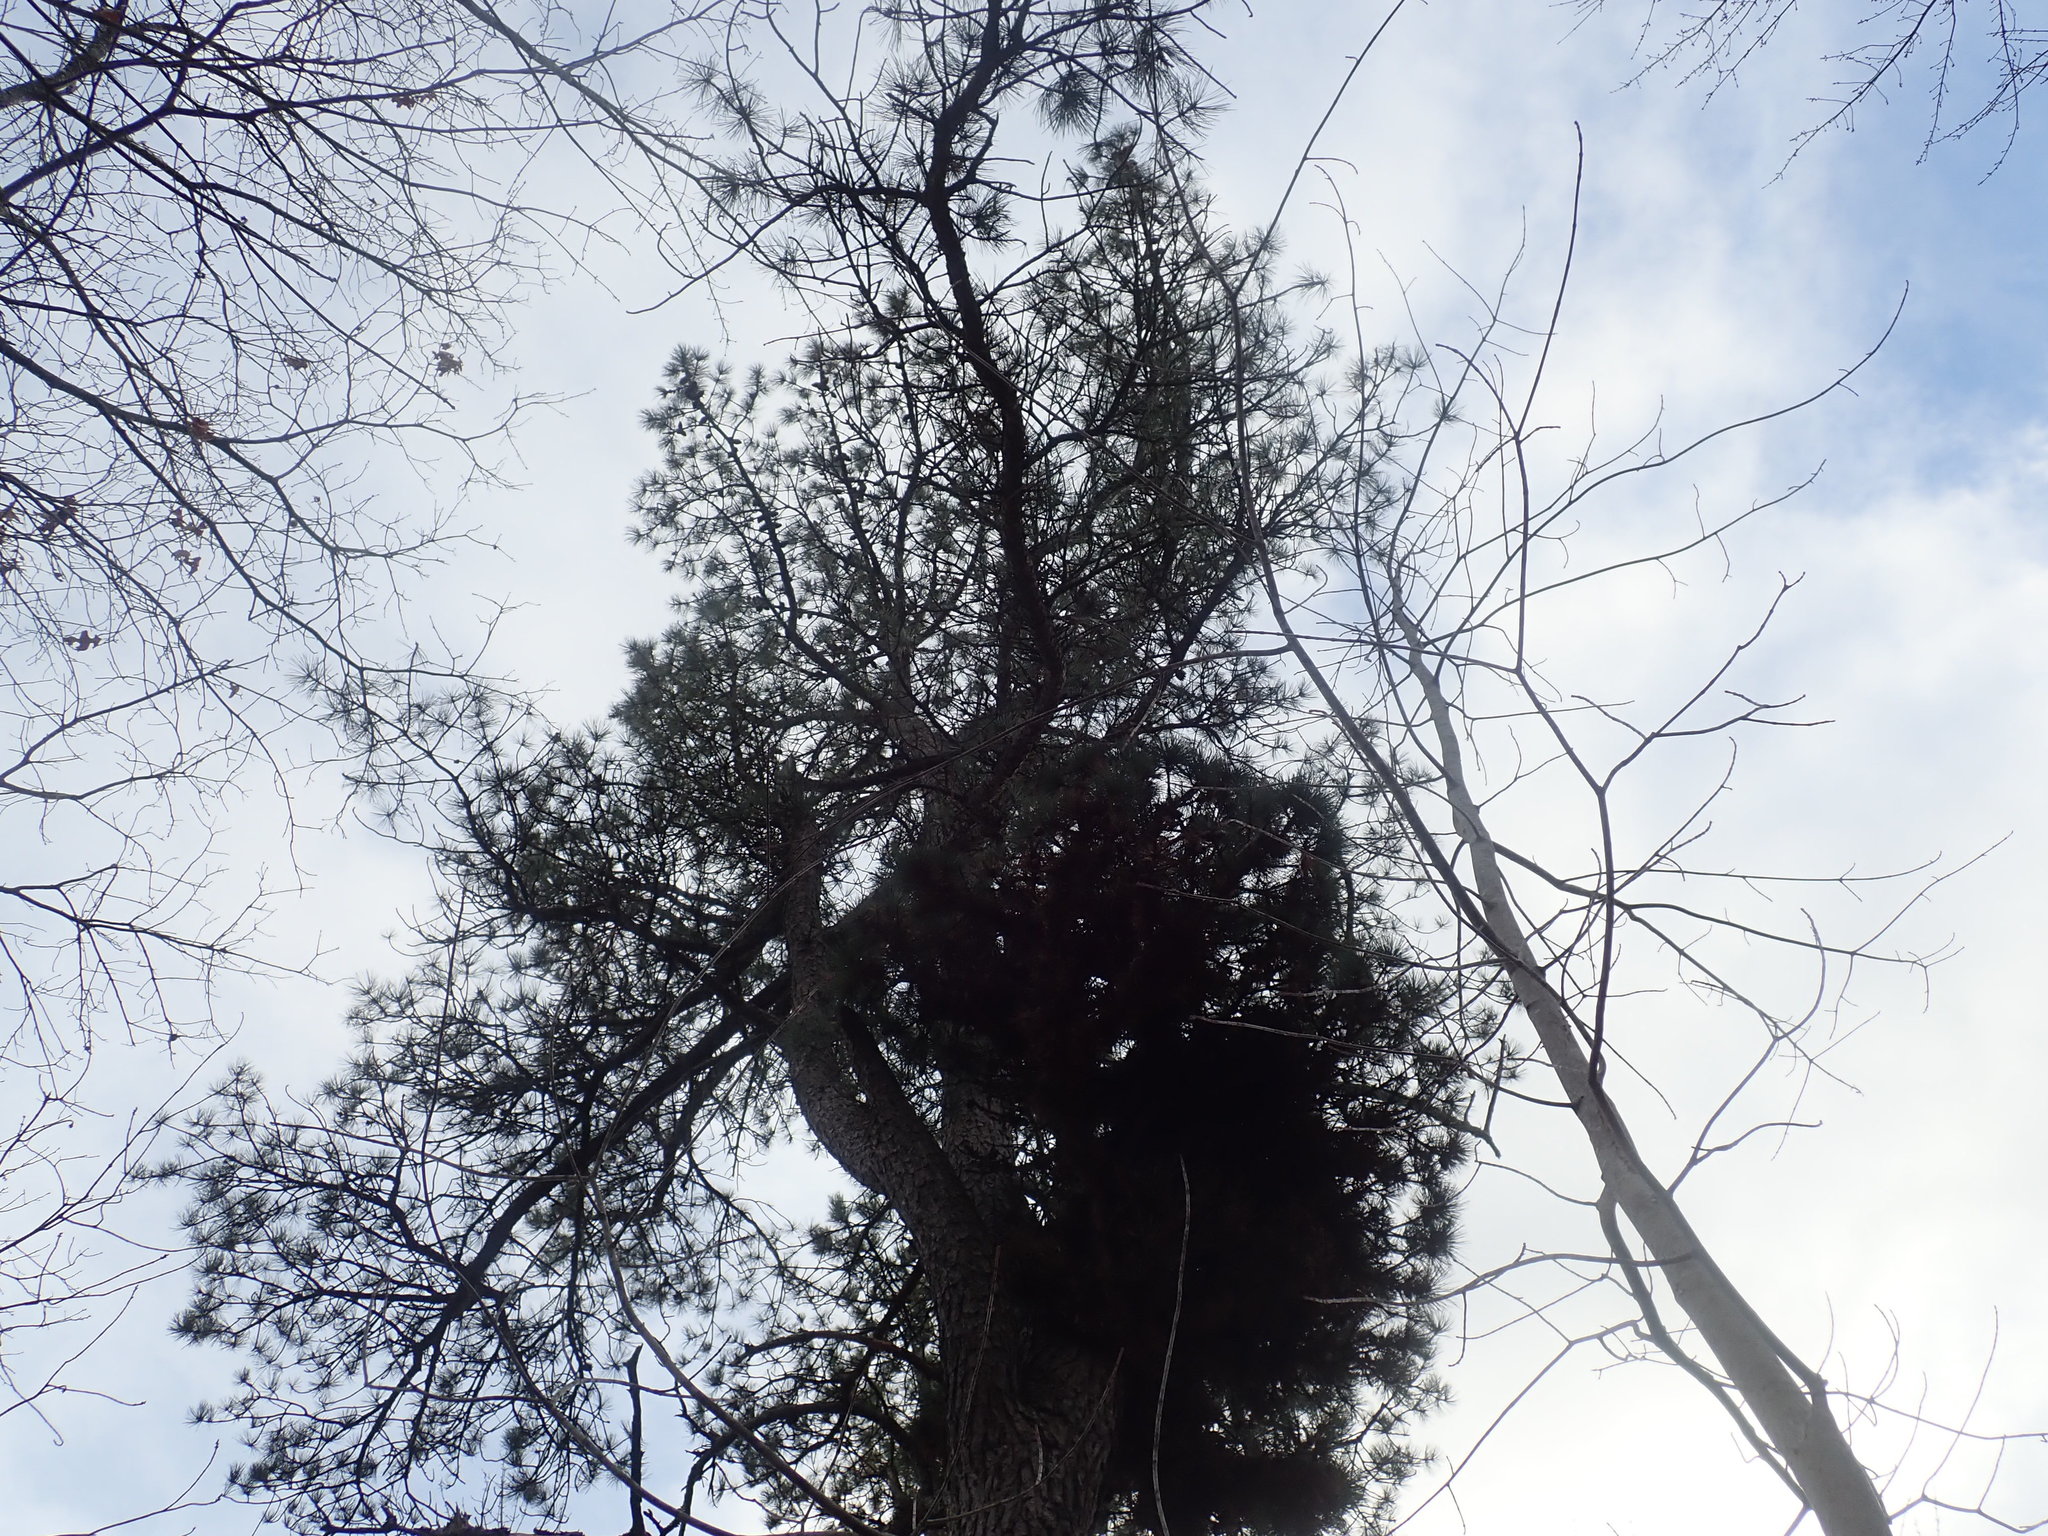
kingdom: Plantae
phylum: Tracheophyta
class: Pinopsida
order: Pinales
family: Pinaceae
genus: Pinus
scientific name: Pinus rigida
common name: Pitch pine
